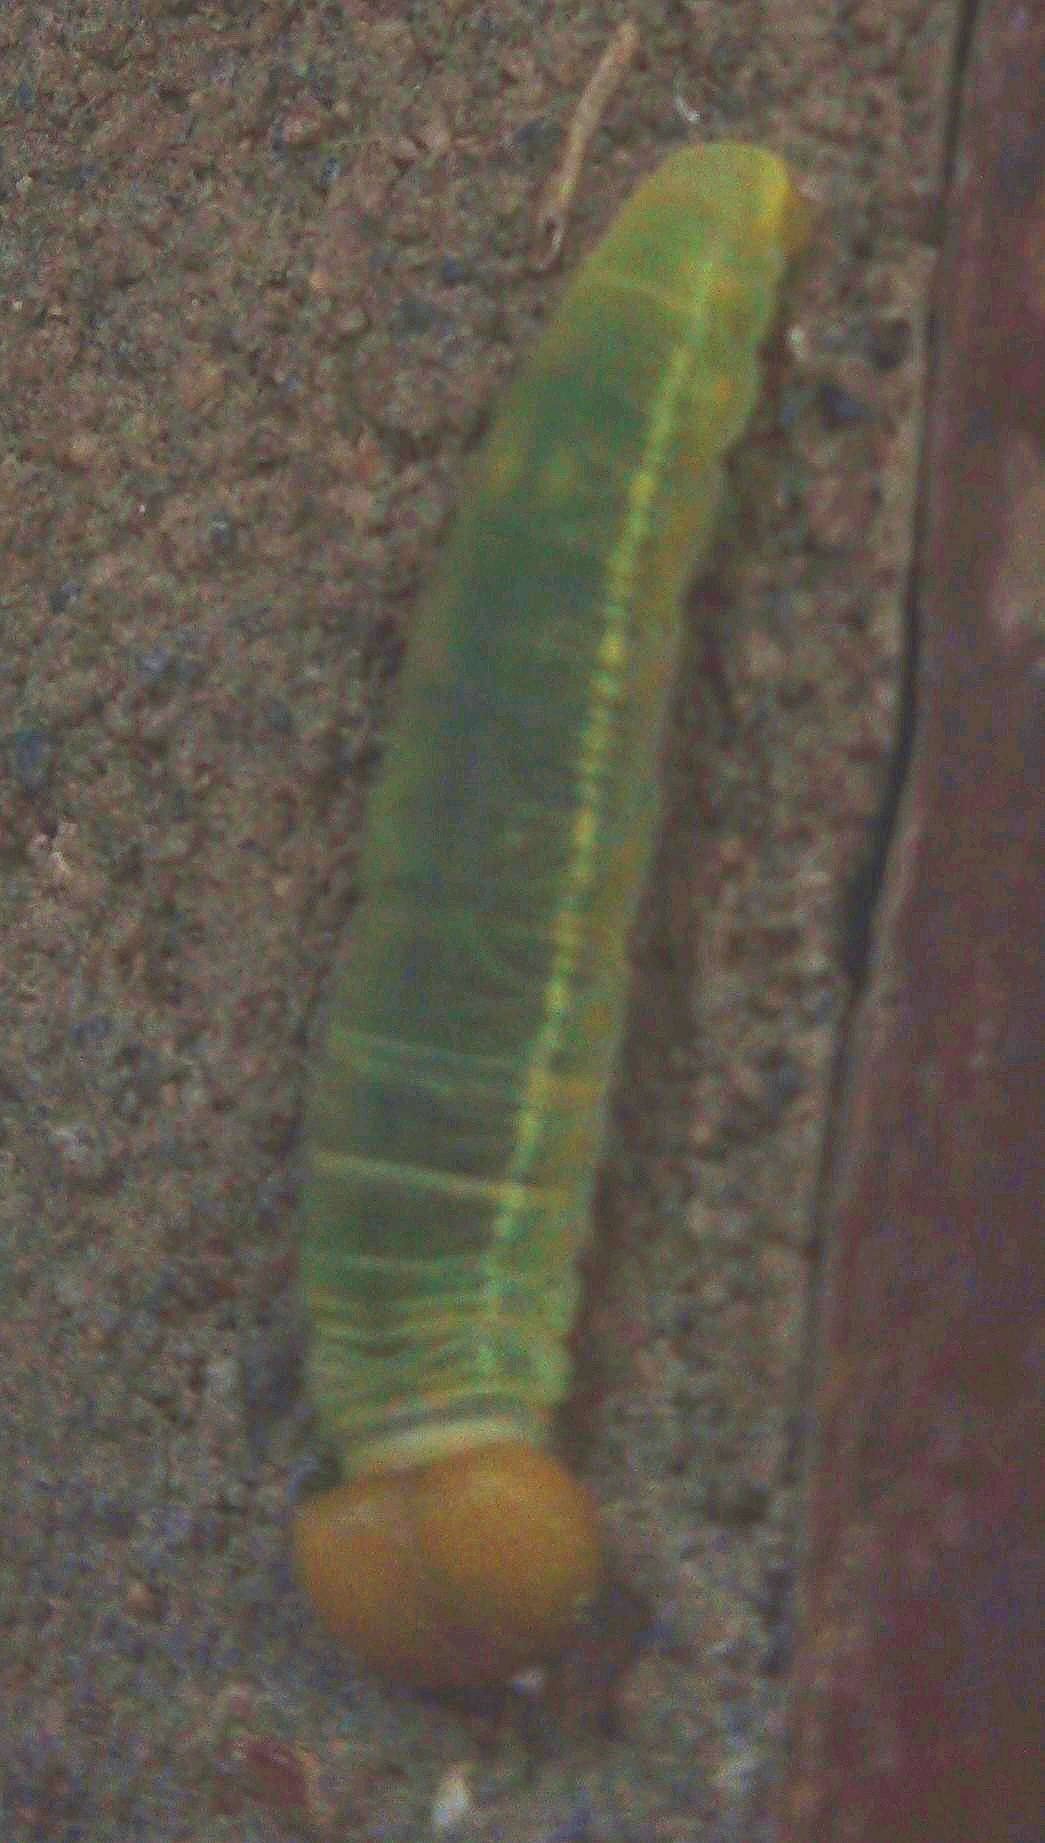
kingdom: Animalia
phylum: Arthropoda
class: Insecta
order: Lepidoptera
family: Hesperiidae
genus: Achlyodes
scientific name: Achlyodes pallida
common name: Pale sicklewing
